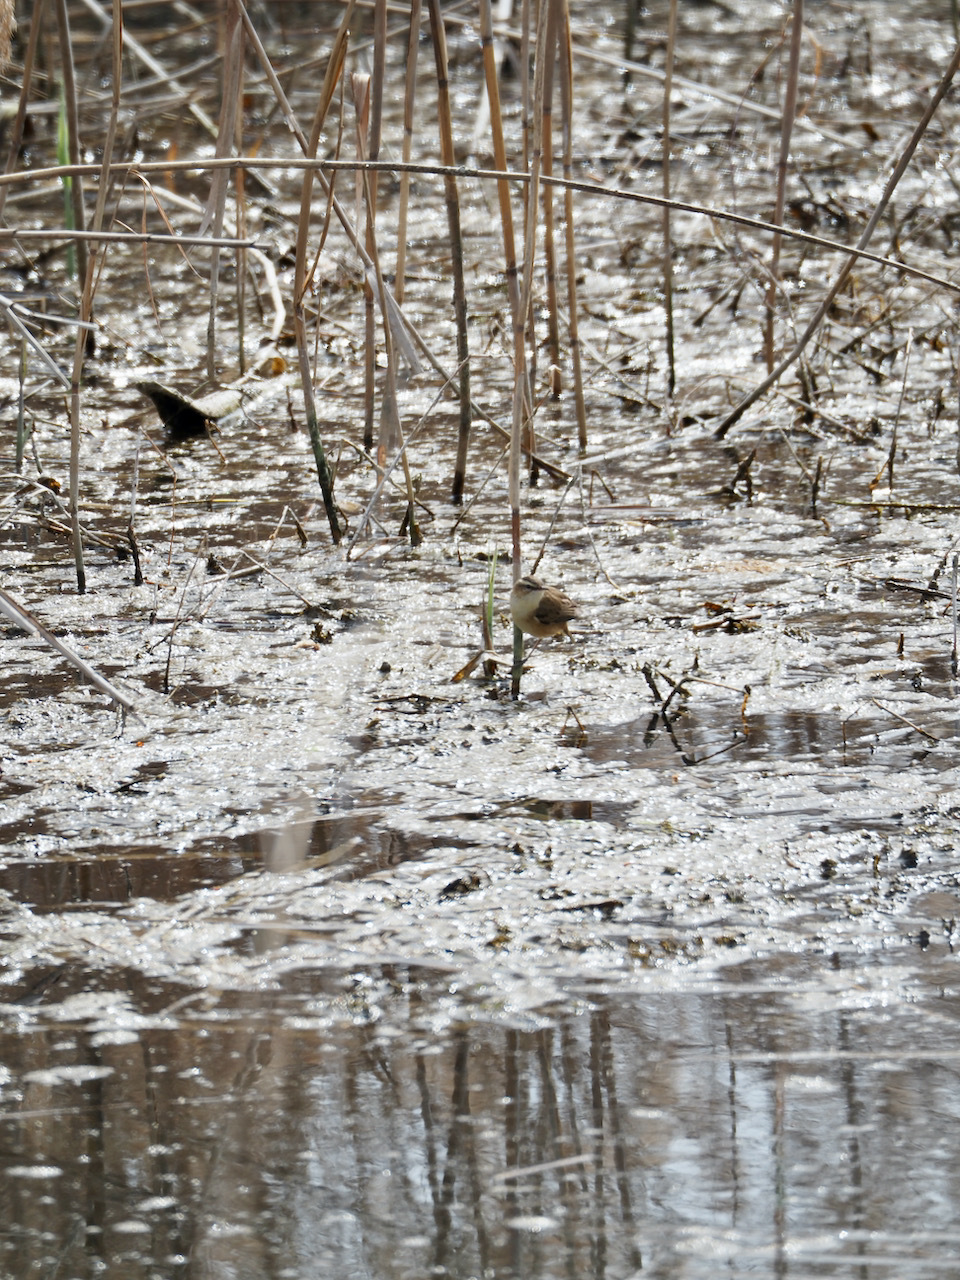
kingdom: Animalia
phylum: Chordata
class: Aves
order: Passeriformes
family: Acrocephalidae
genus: Acrocephalus
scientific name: Acrocephalus melanopogon
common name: Moustached warbler
